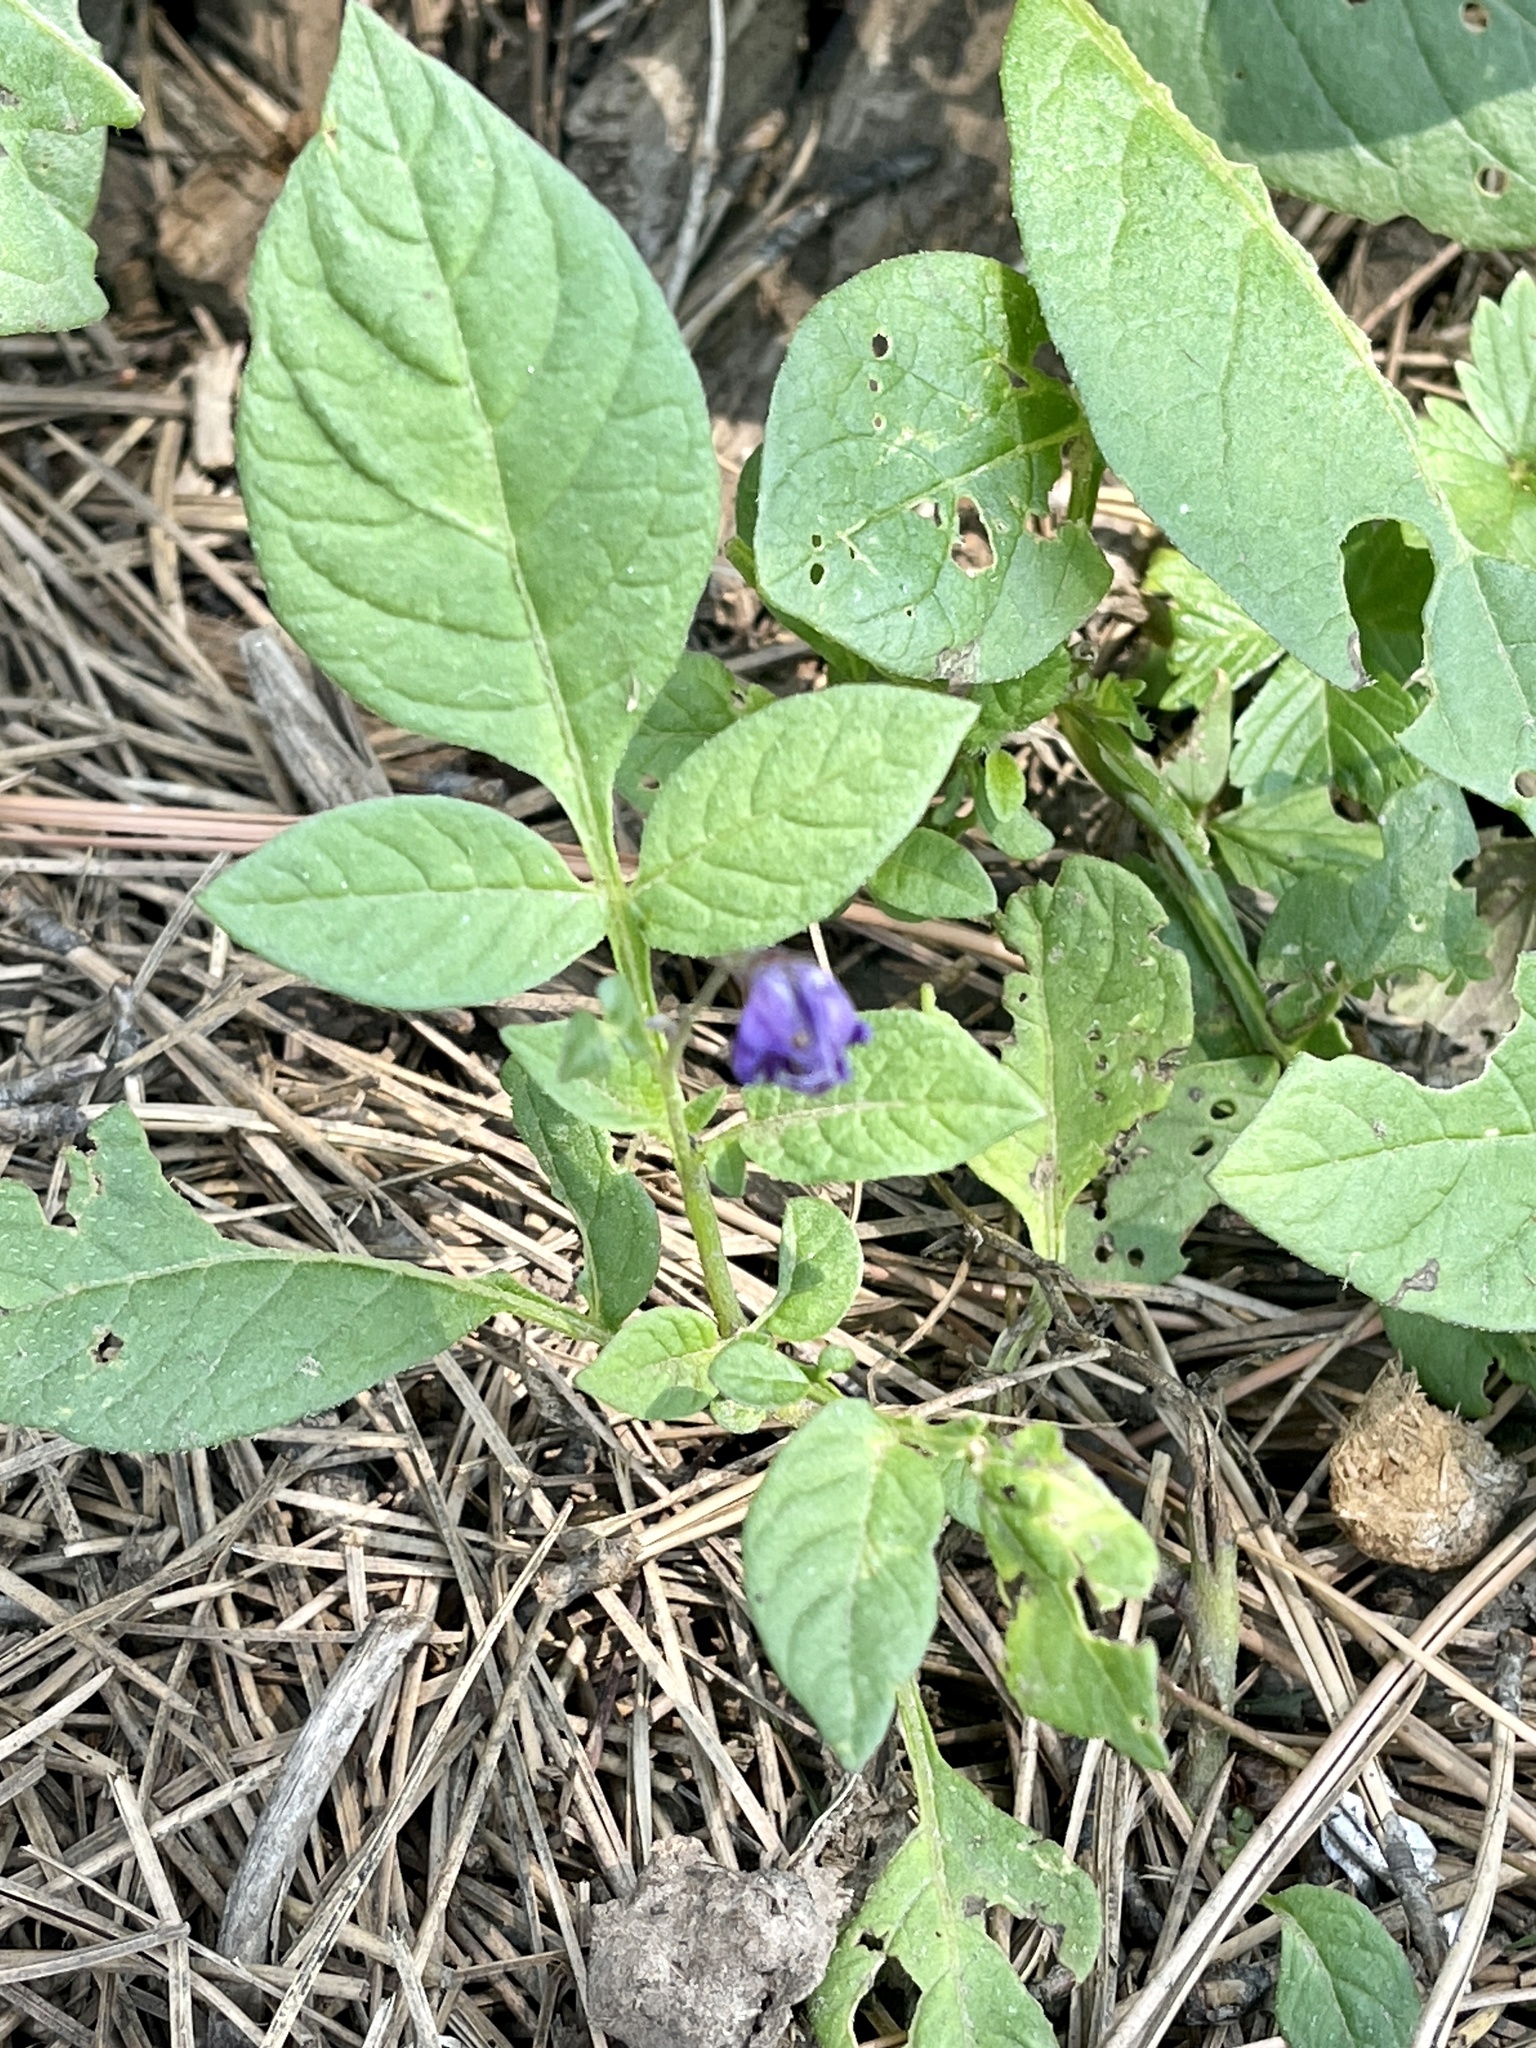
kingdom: Plantae
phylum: Tracheophyta
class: Magnoliopsida
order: Solanales
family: Solanaceae
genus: Solanum
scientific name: Solanum stoloniferum
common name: Fendler's nighshade
